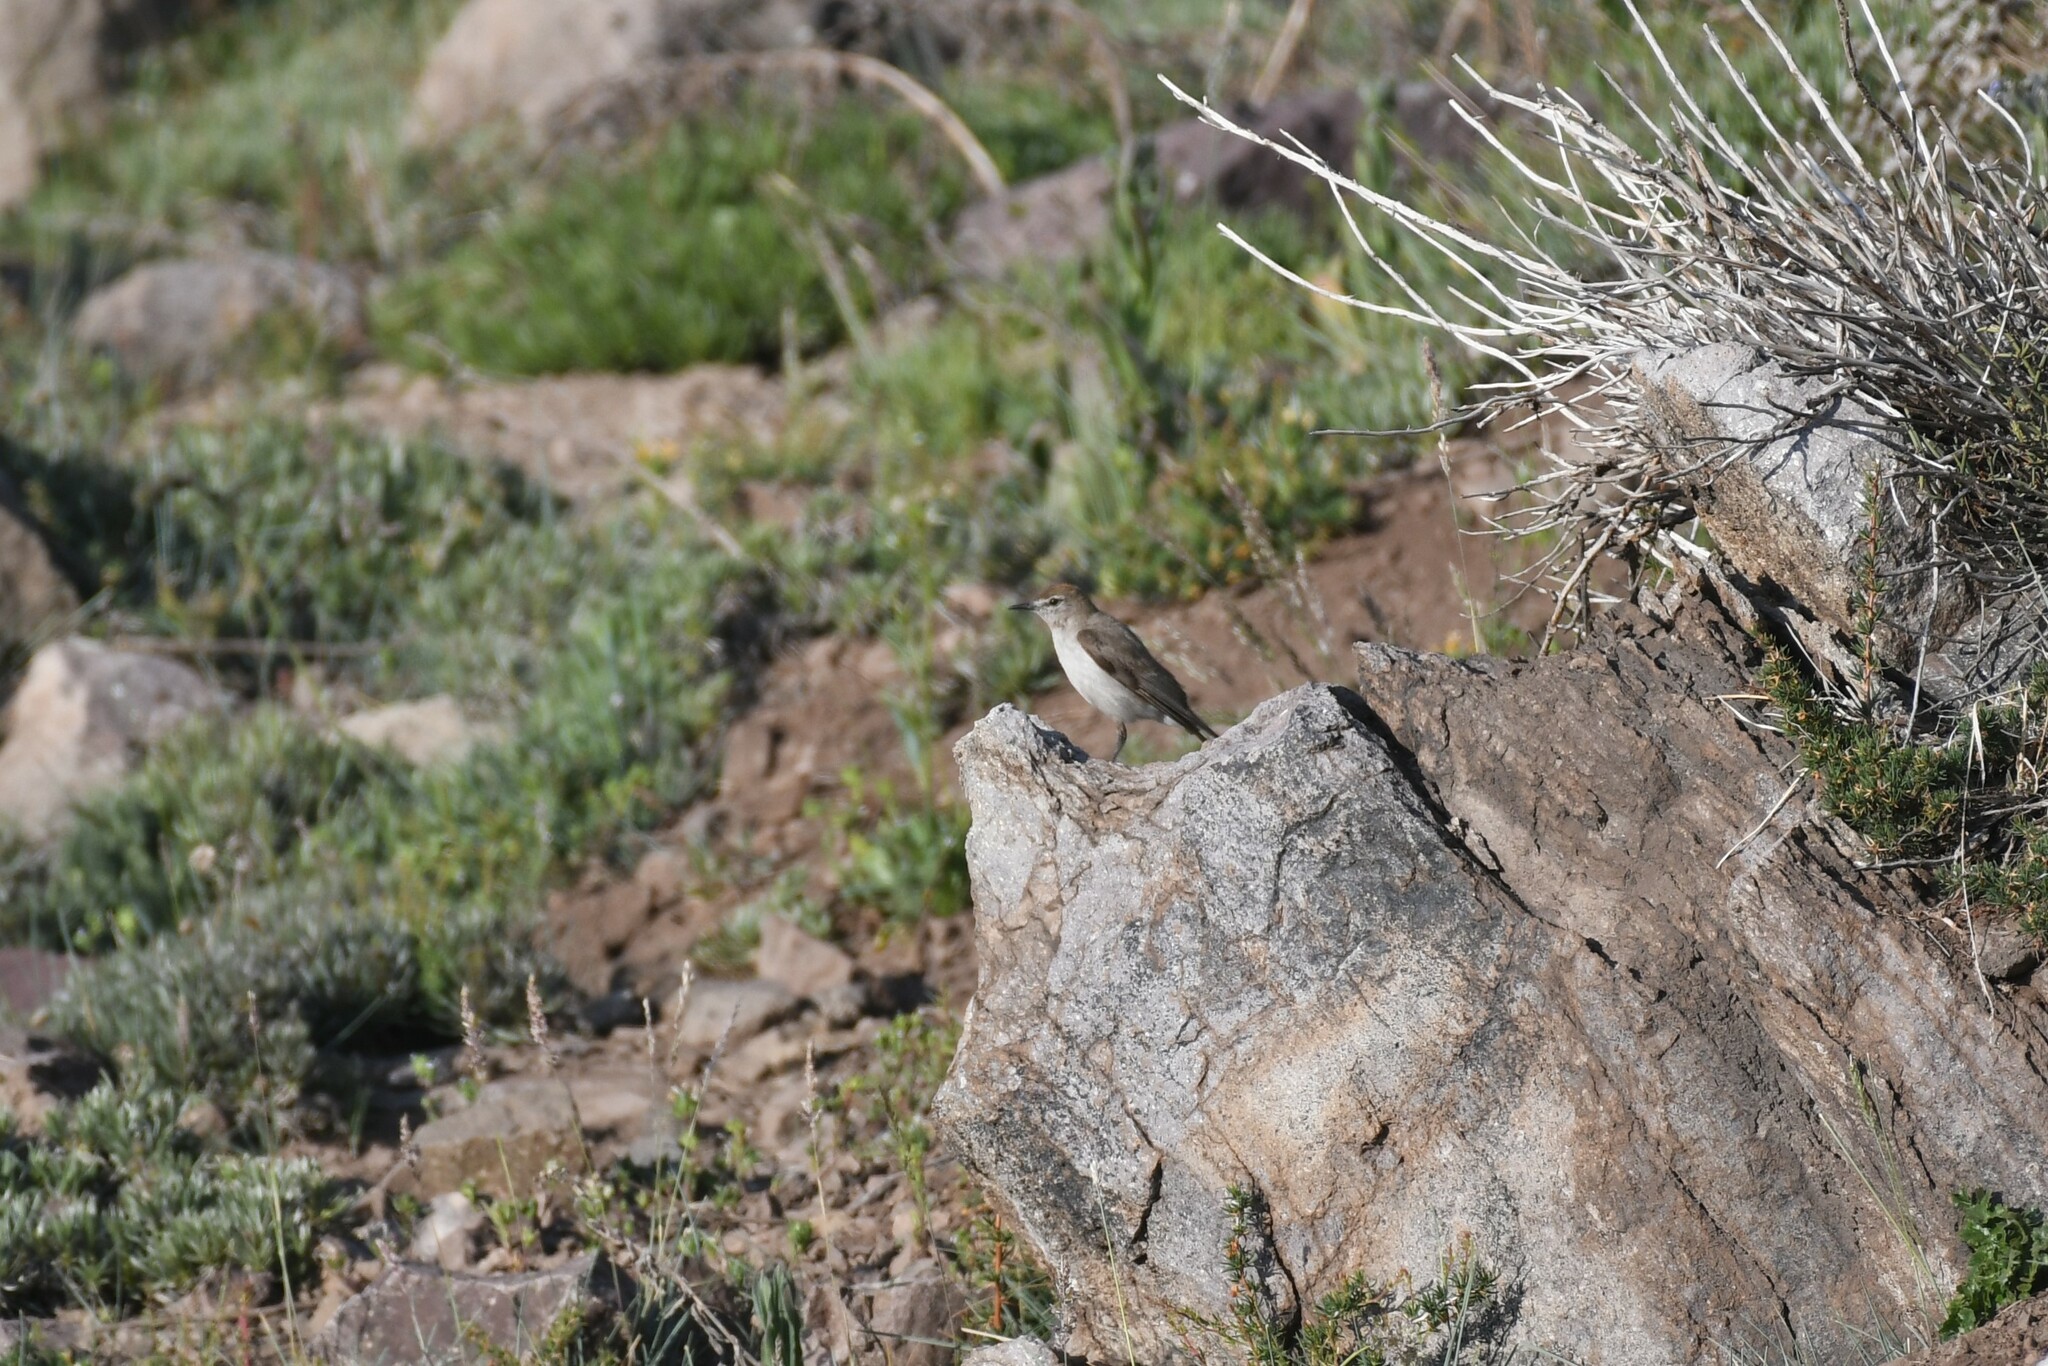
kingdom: Animalia
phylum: Chordata
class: Aves
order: Passeriformes
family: Tyrannidae
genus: Muscisaxicola
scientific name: Muscisaxicola albilora
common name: White-browed ground tyrant
